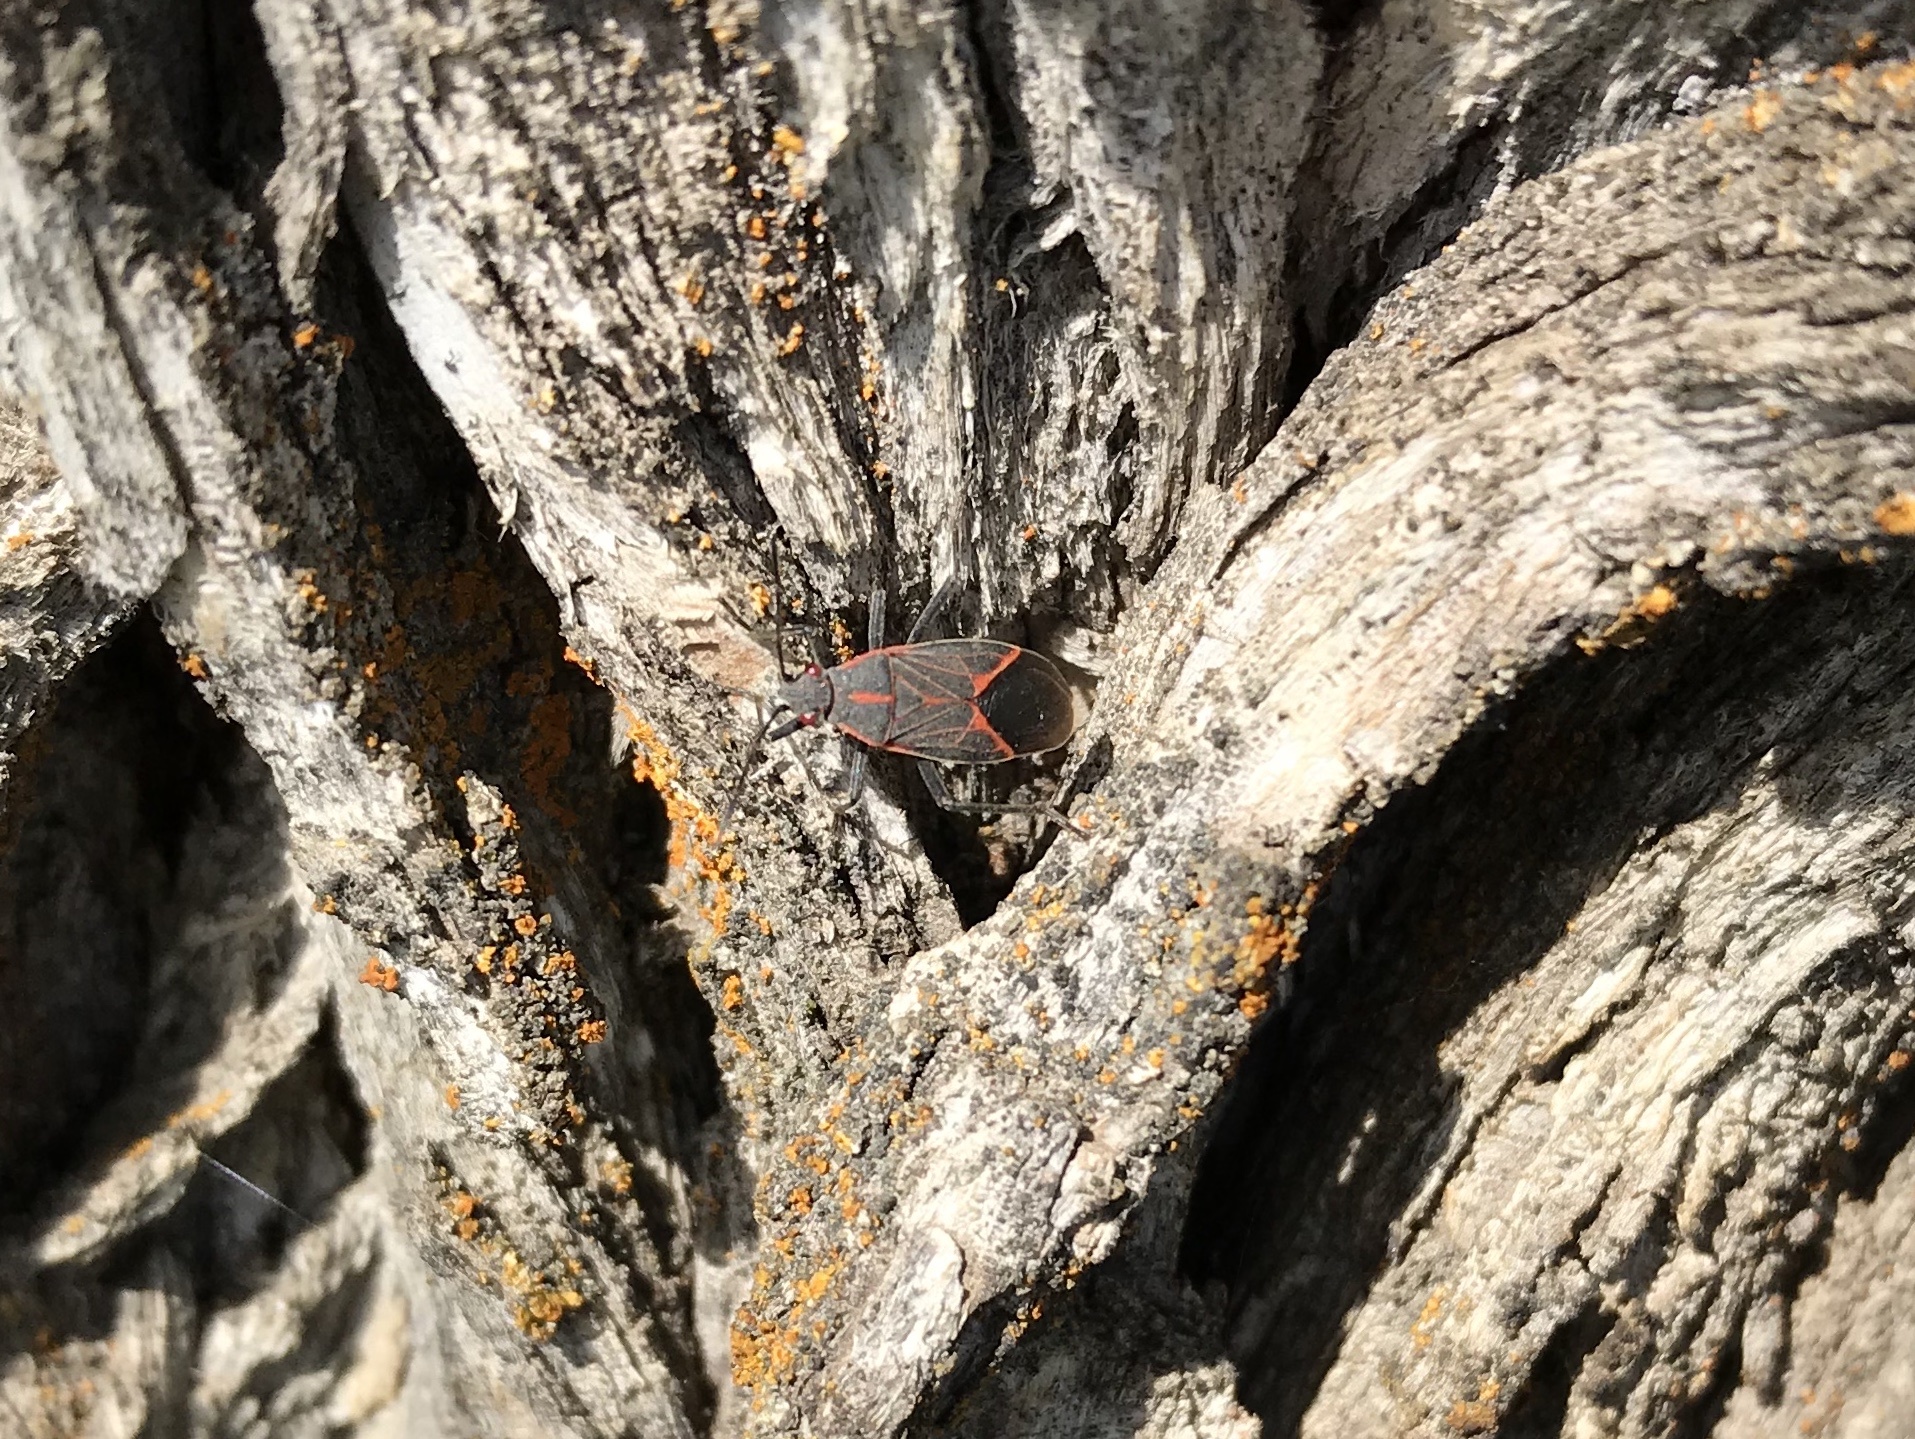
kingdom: Animalia
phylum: Arthropoda
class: Insecta
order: Hemiptera
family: Rhopalidae
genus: Boisea
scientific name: Boisea rubrolineata
